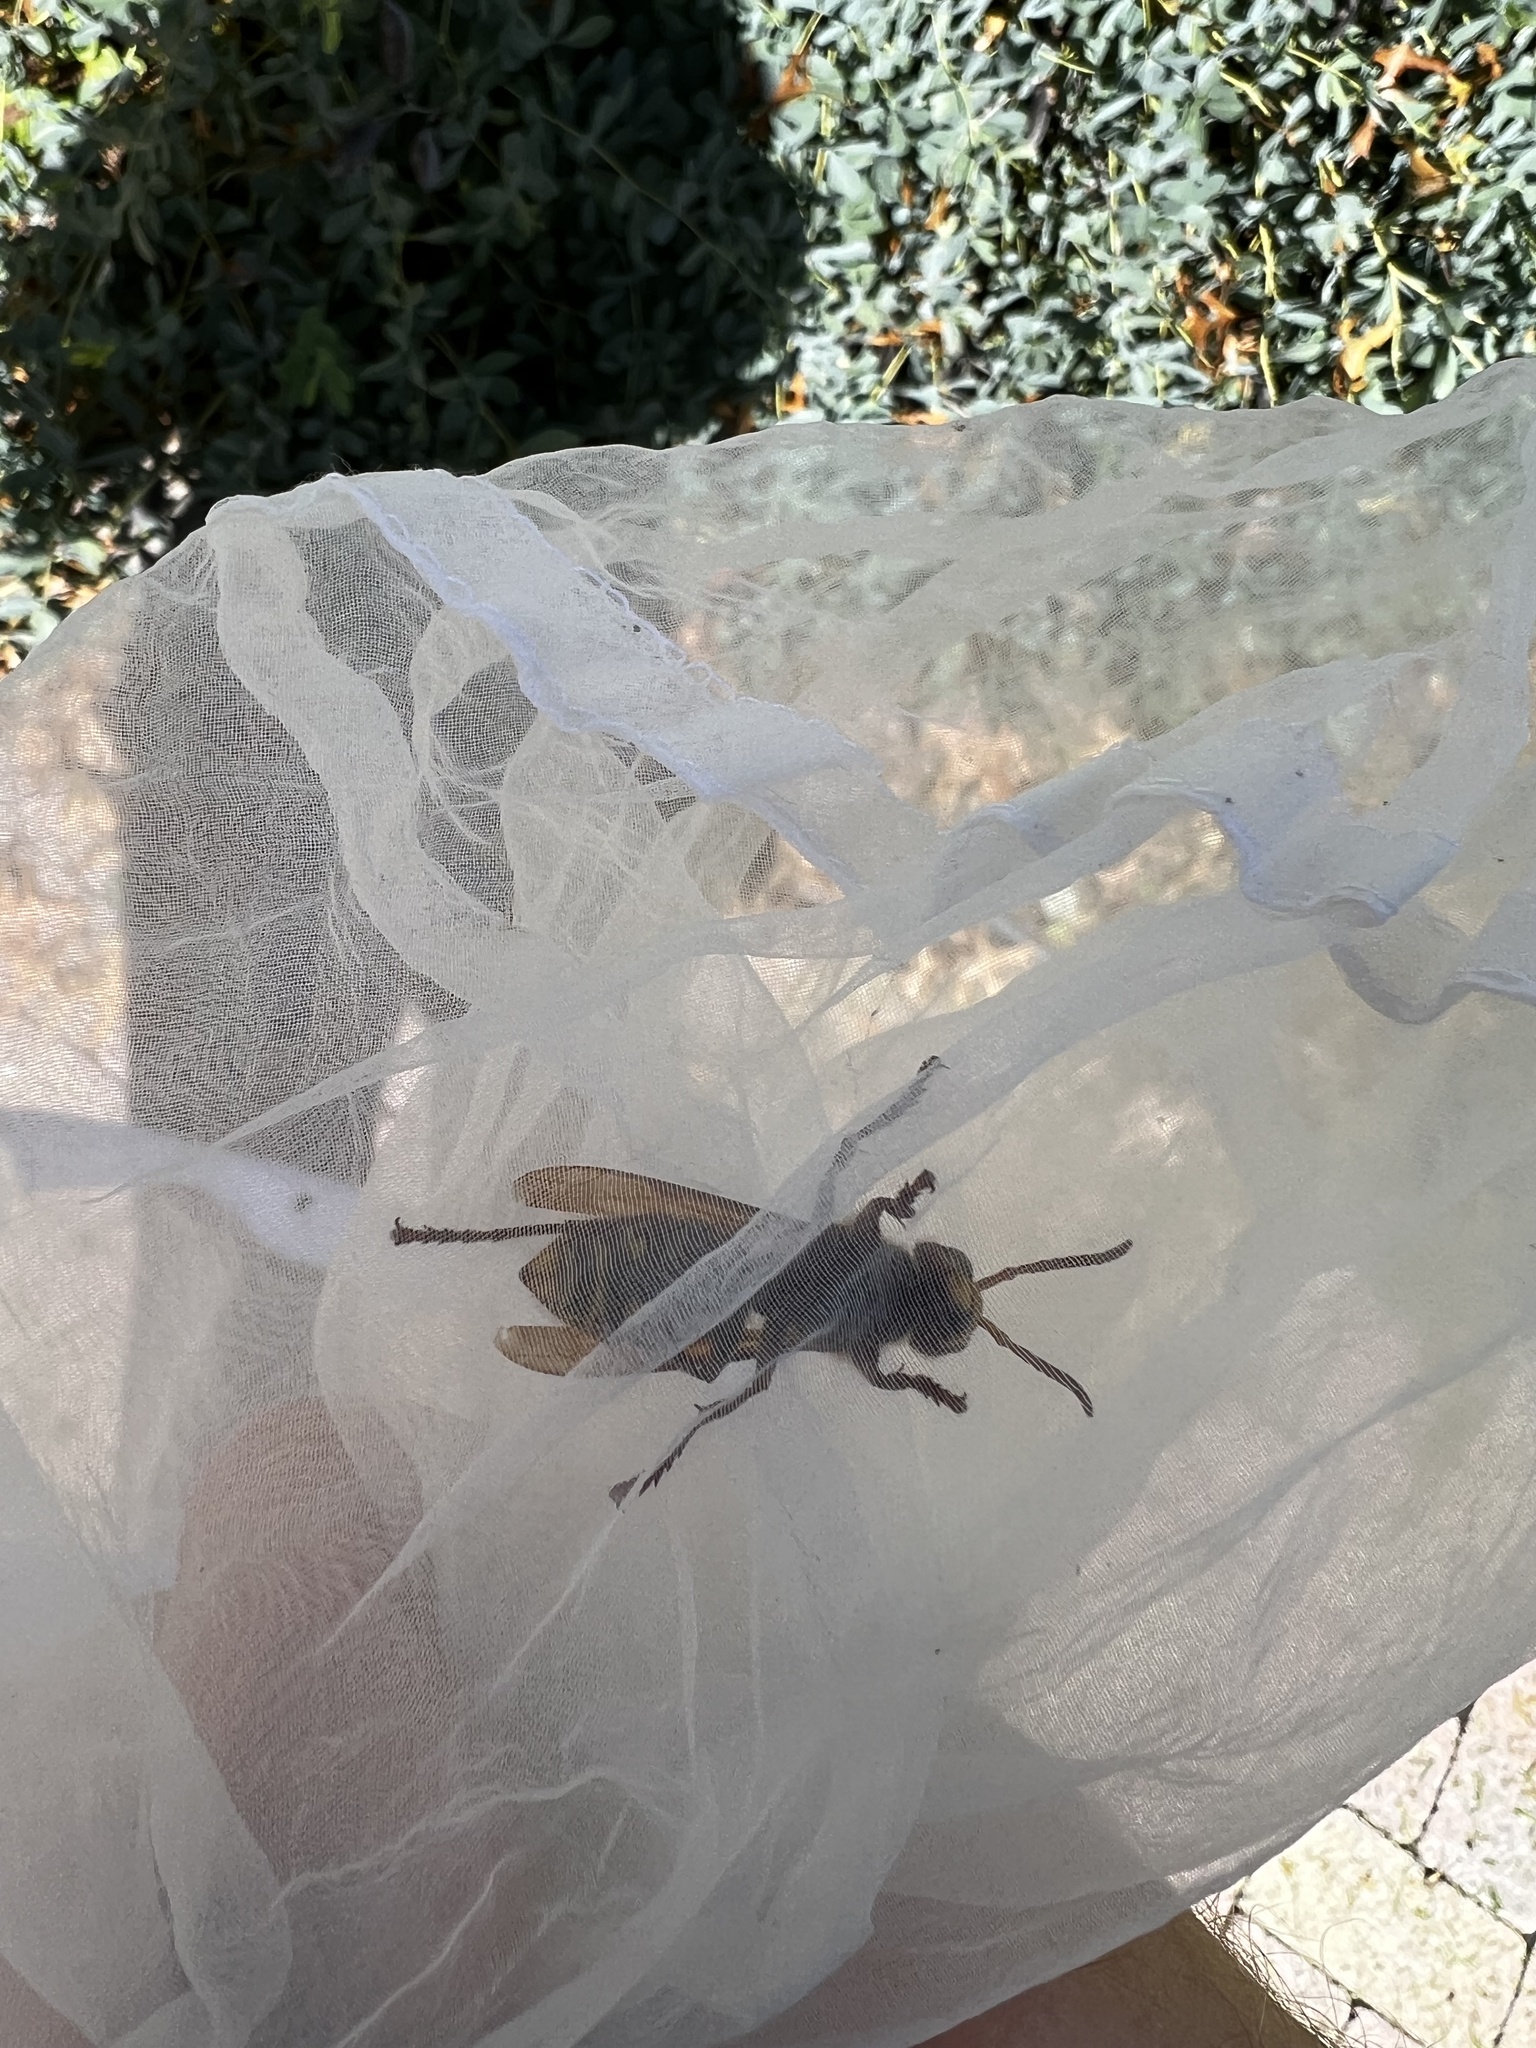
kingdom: Animalia
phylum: Arthropoda
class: Insecta
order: Hymenoptera
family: Vespidae
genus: Vespa
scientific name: Vespa crabro
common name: Hornet
